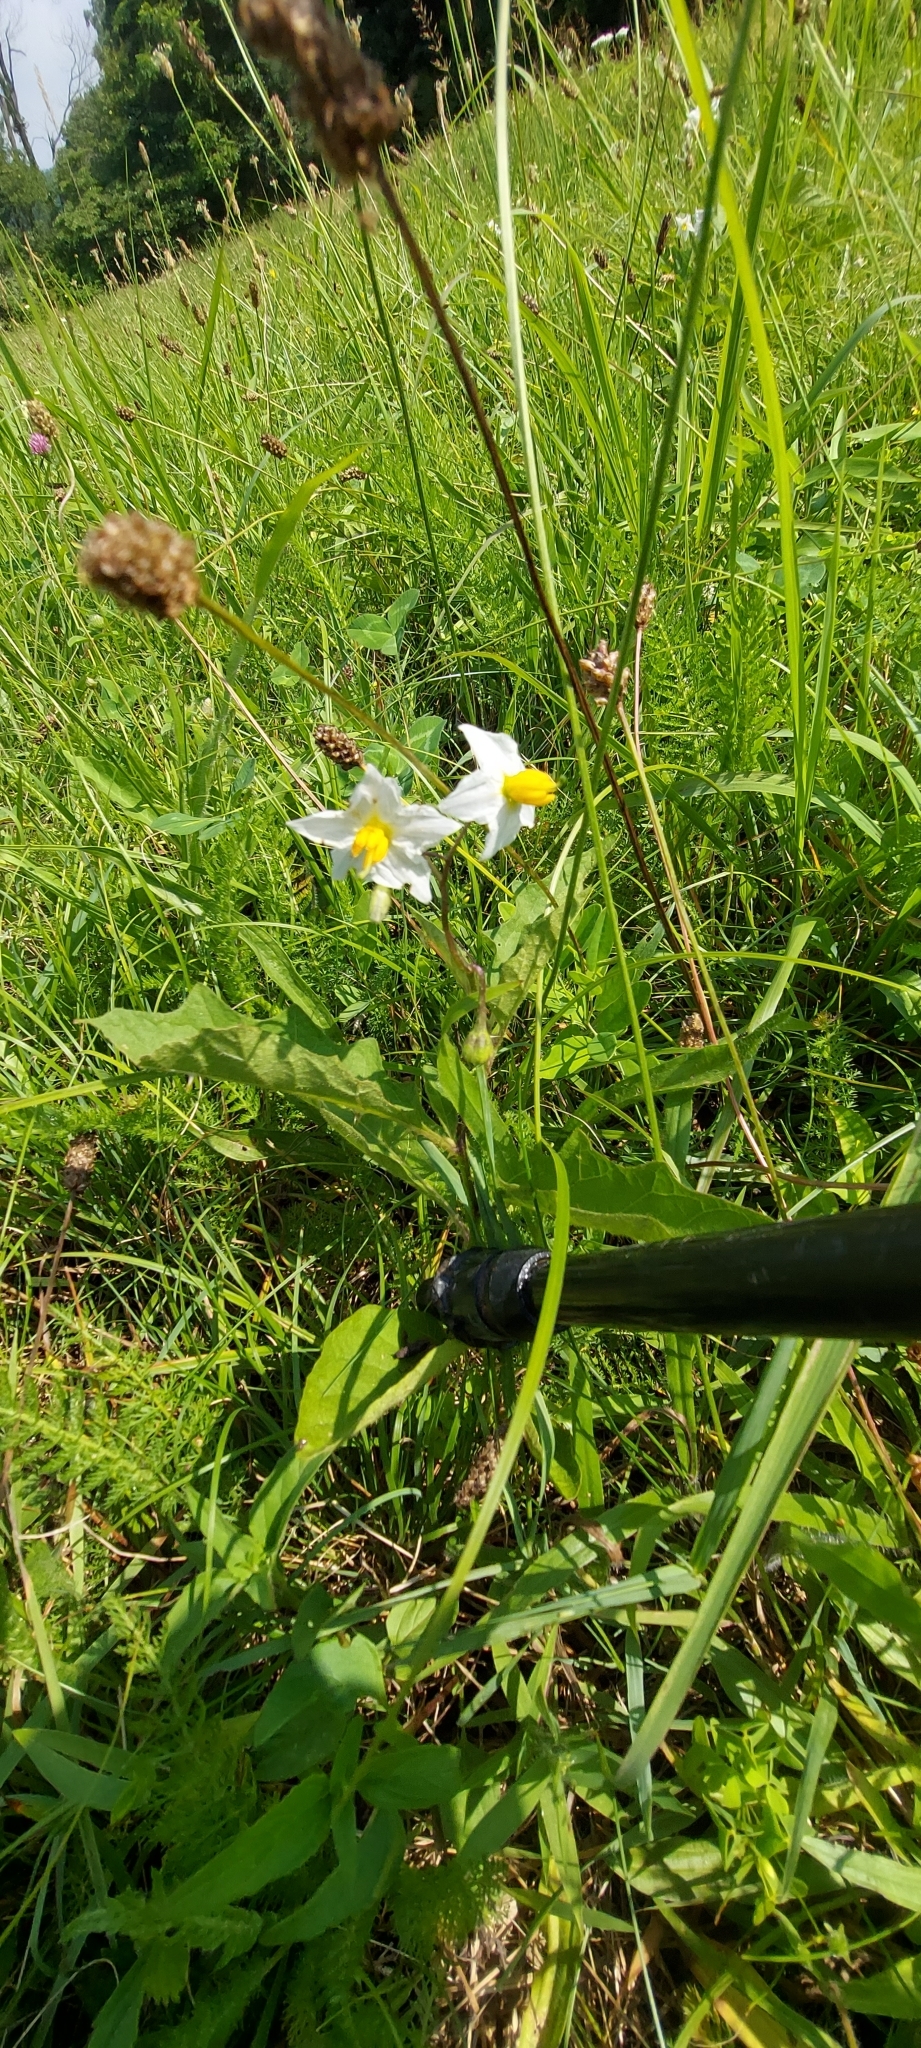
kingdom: Plantae
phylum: Tracheophyta
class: Magnoliopsida
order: Solanales
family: Solanaceae
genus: Solanum
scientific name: Solanum carolinense
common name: Horse-nettle
